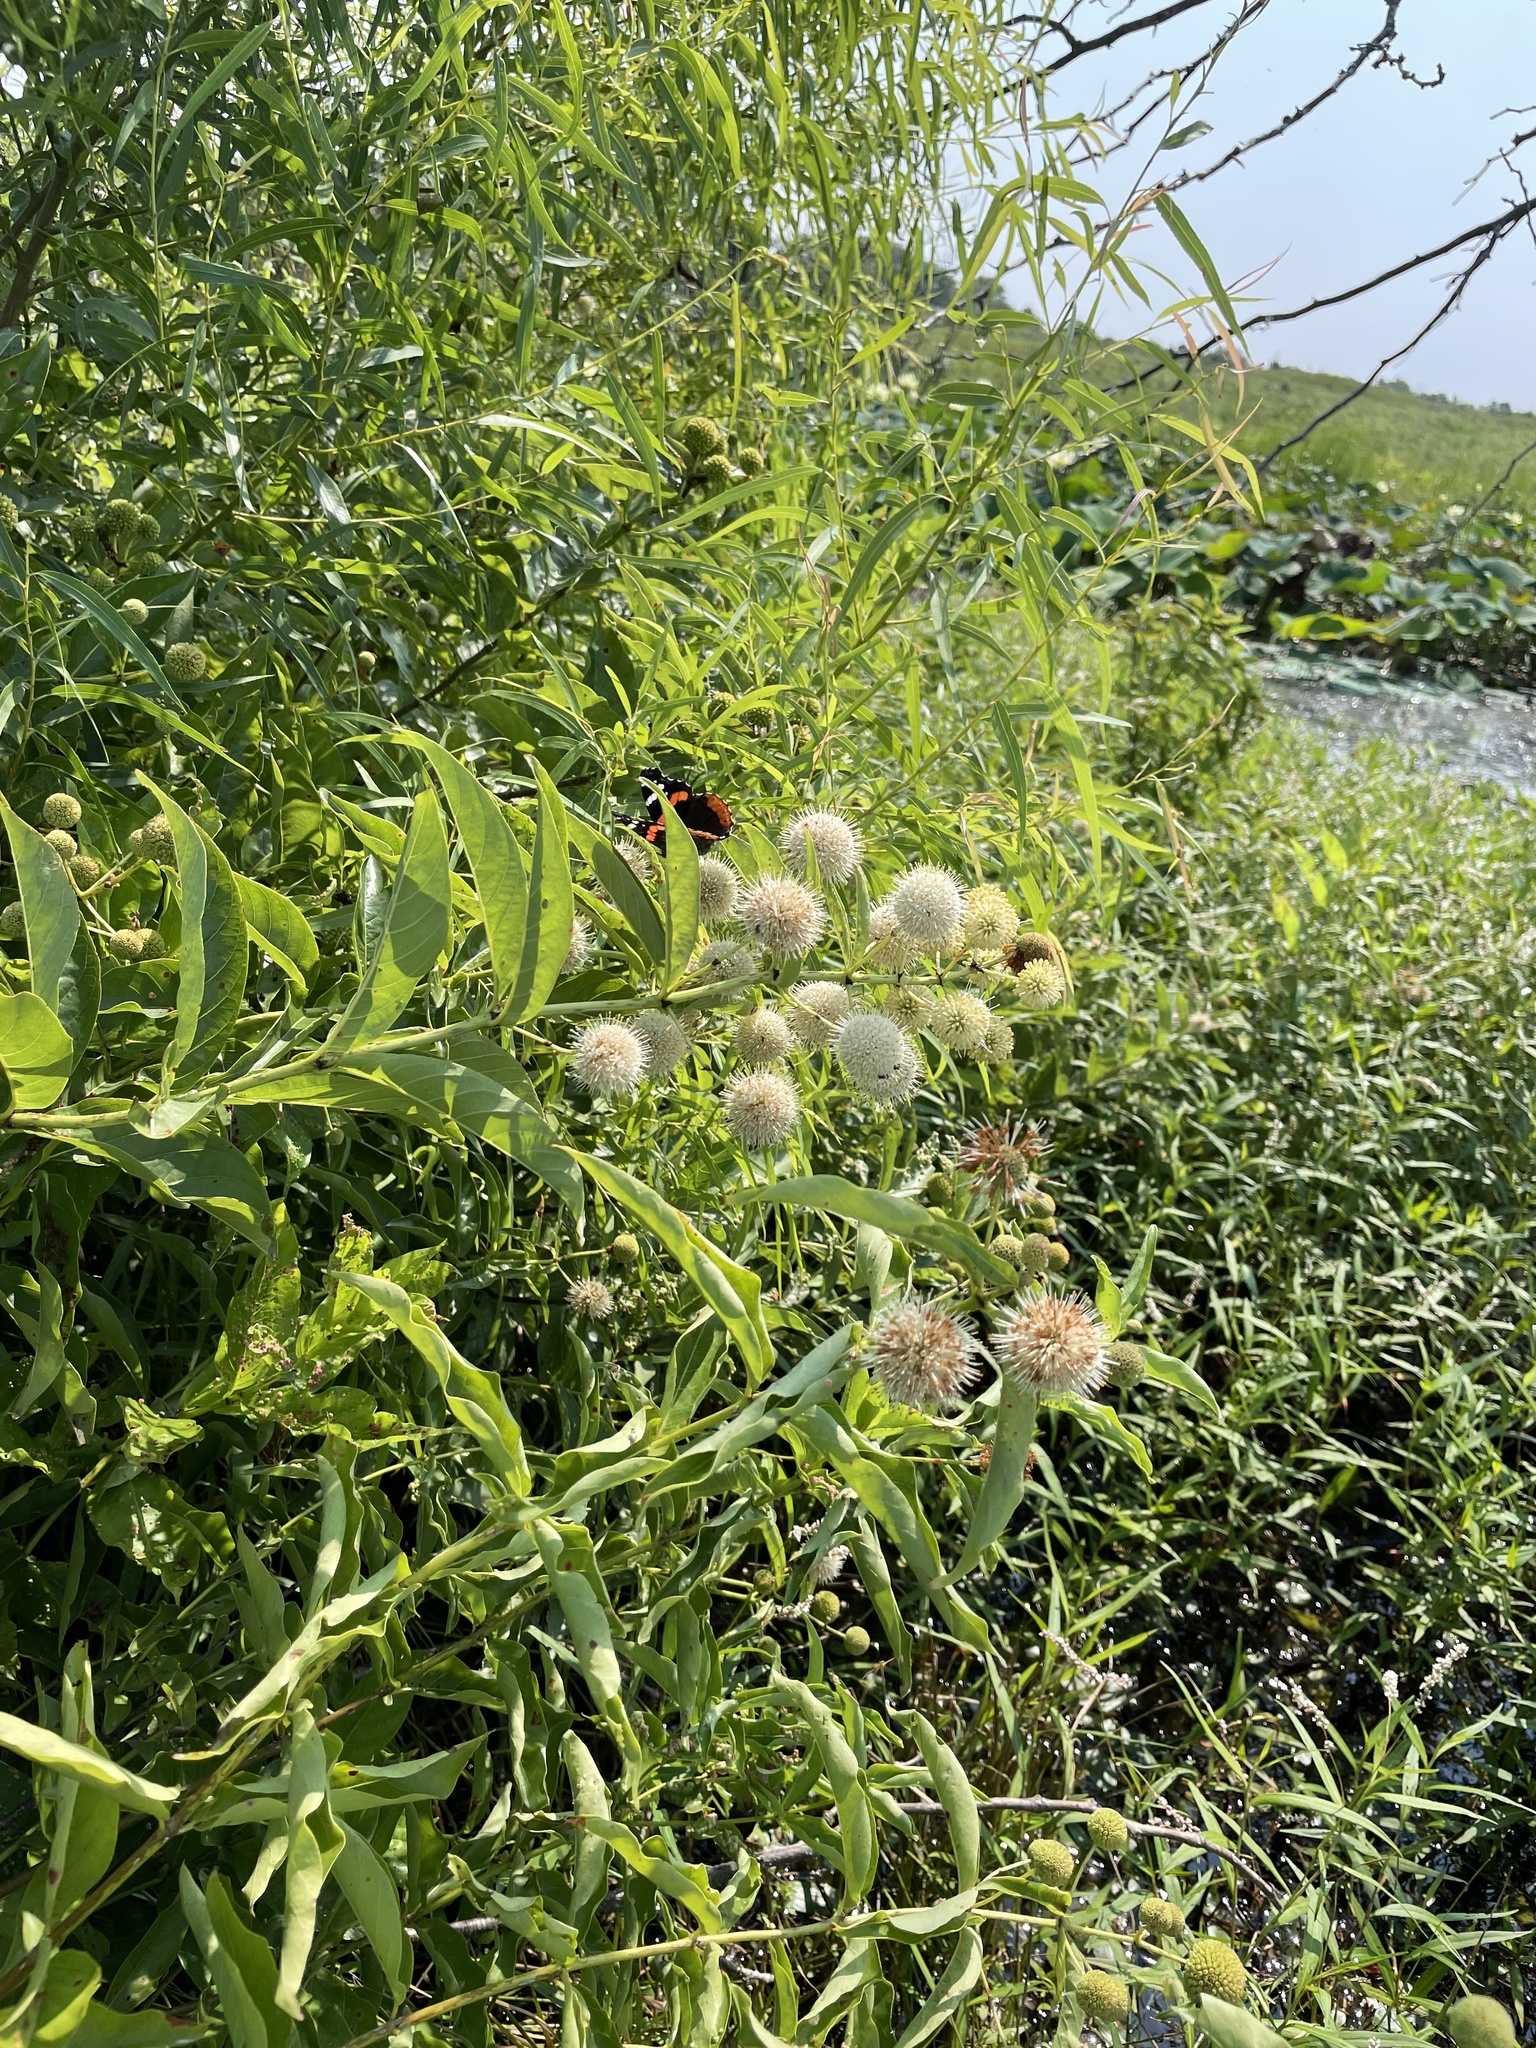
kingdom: Animalia
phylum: Arthropoda
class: Insecta
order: Lepidoptera
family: Nymphalidae
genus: Vanessa
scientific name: Vanessa atalanta
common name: Red admiral
